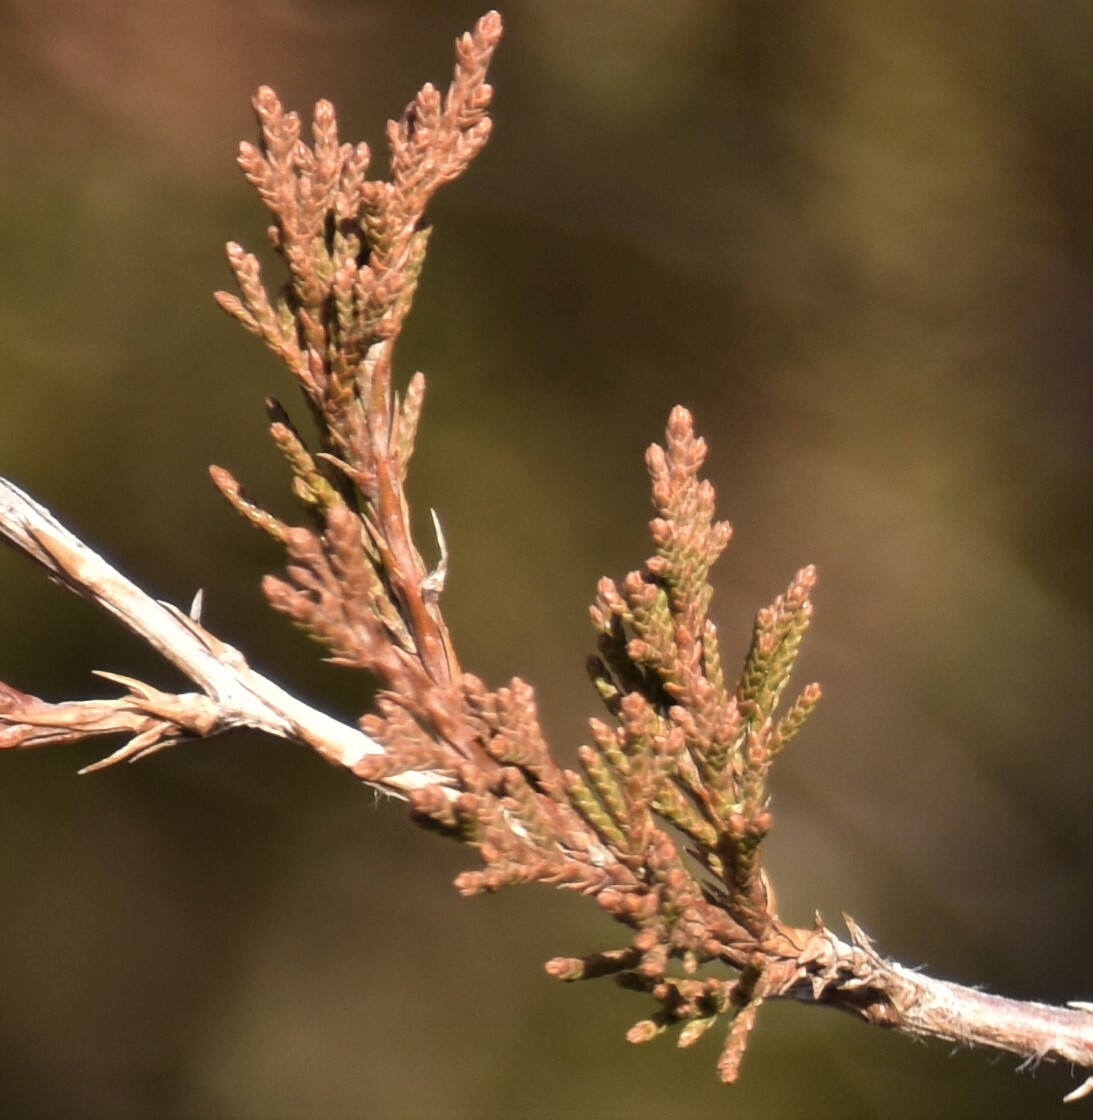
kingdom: Plantae
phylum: Tracheophyta
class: Pinopsida
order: Pinales
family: Cupressaceae
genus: Juniperus
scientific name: Juniperus virginiana
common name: Red juniper
